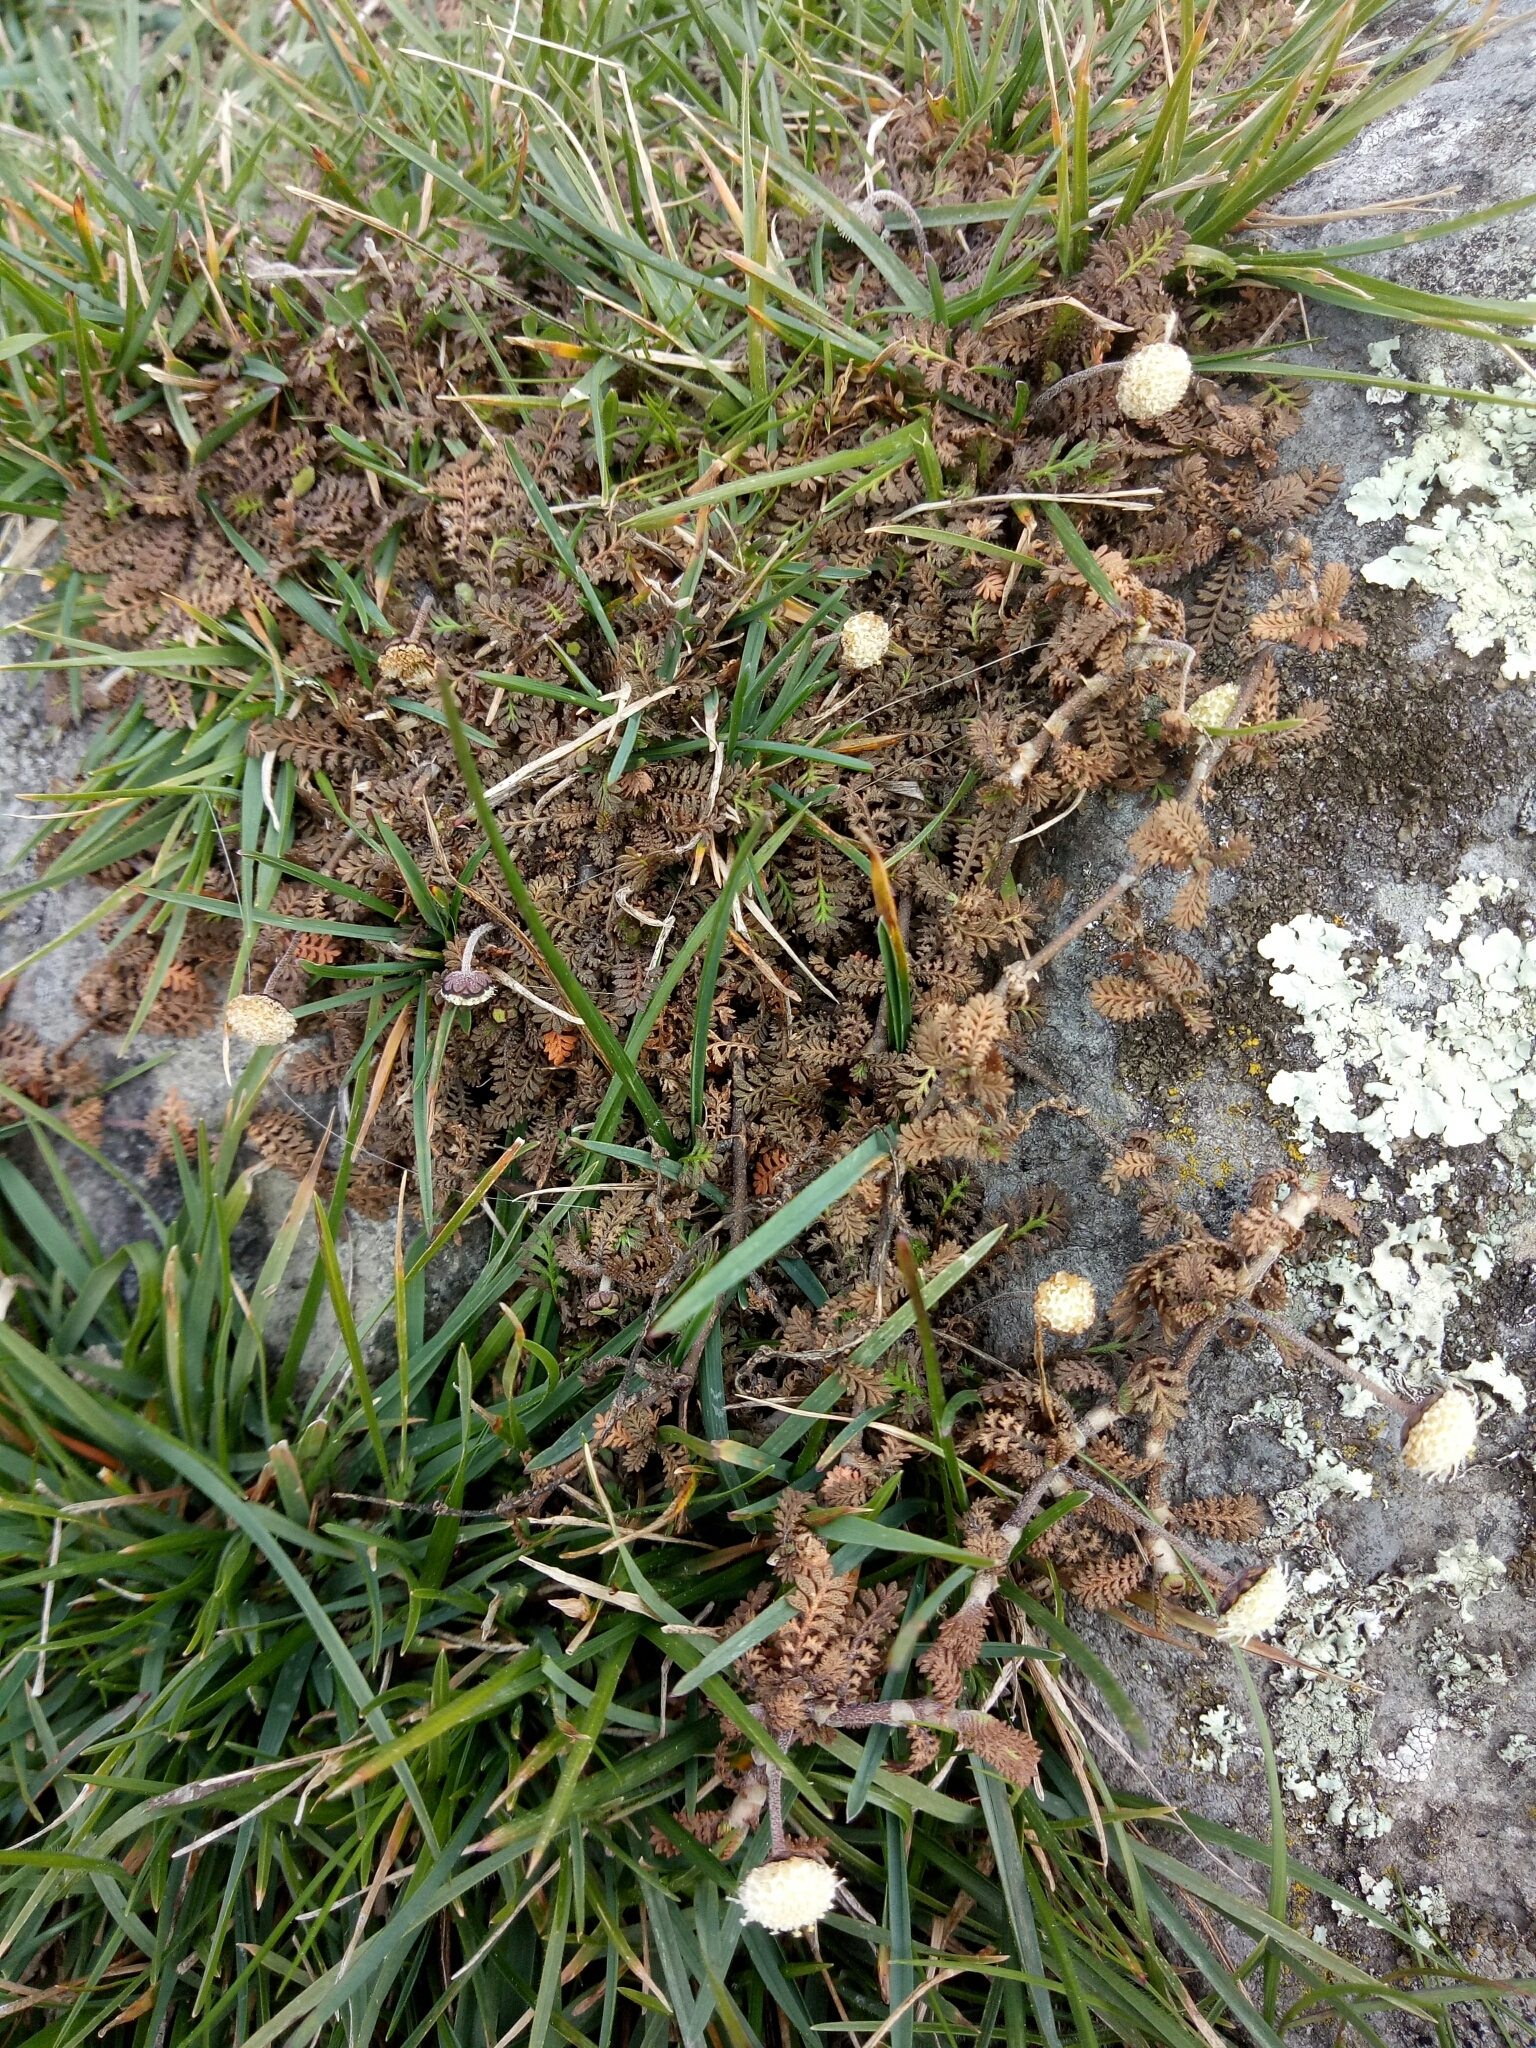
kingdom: Plantae
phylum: Tracheophyta
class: Magnoliopsida
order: Asterales
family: Asteraceae
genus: Leptinella
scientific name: Leptinella minor
